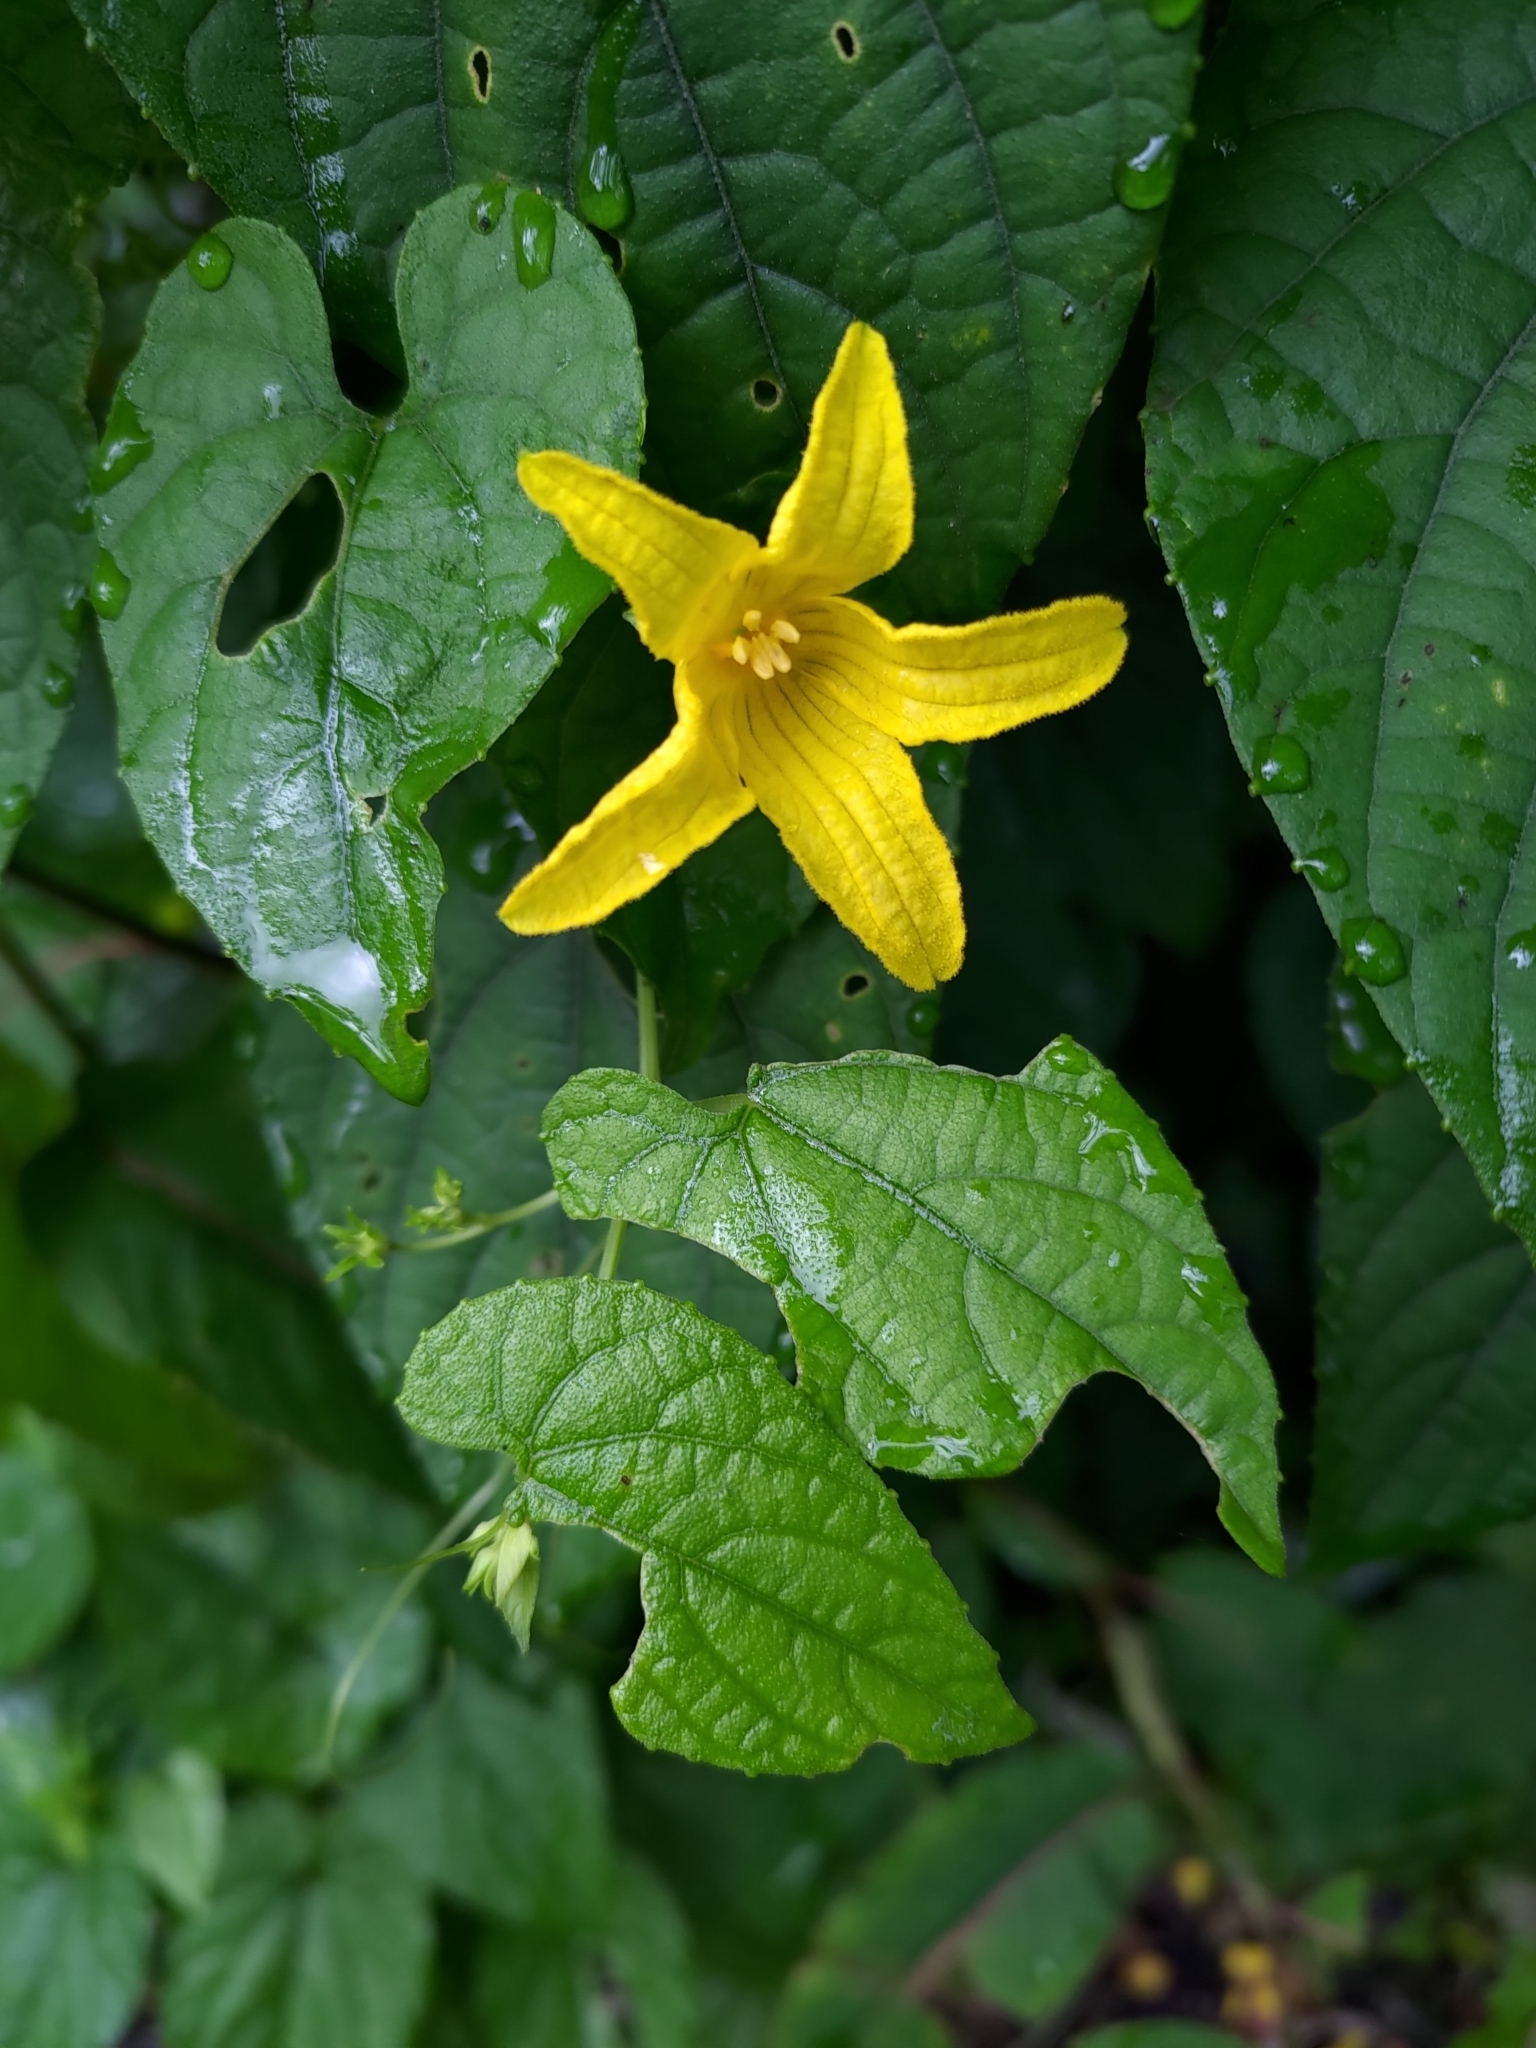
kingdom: Plantae
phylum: Tracheophyta
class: Magnoliopsida
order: Cucurbitales
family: Cucurbitaceae
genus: Thladiantha
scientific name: Thladiantha punctata
